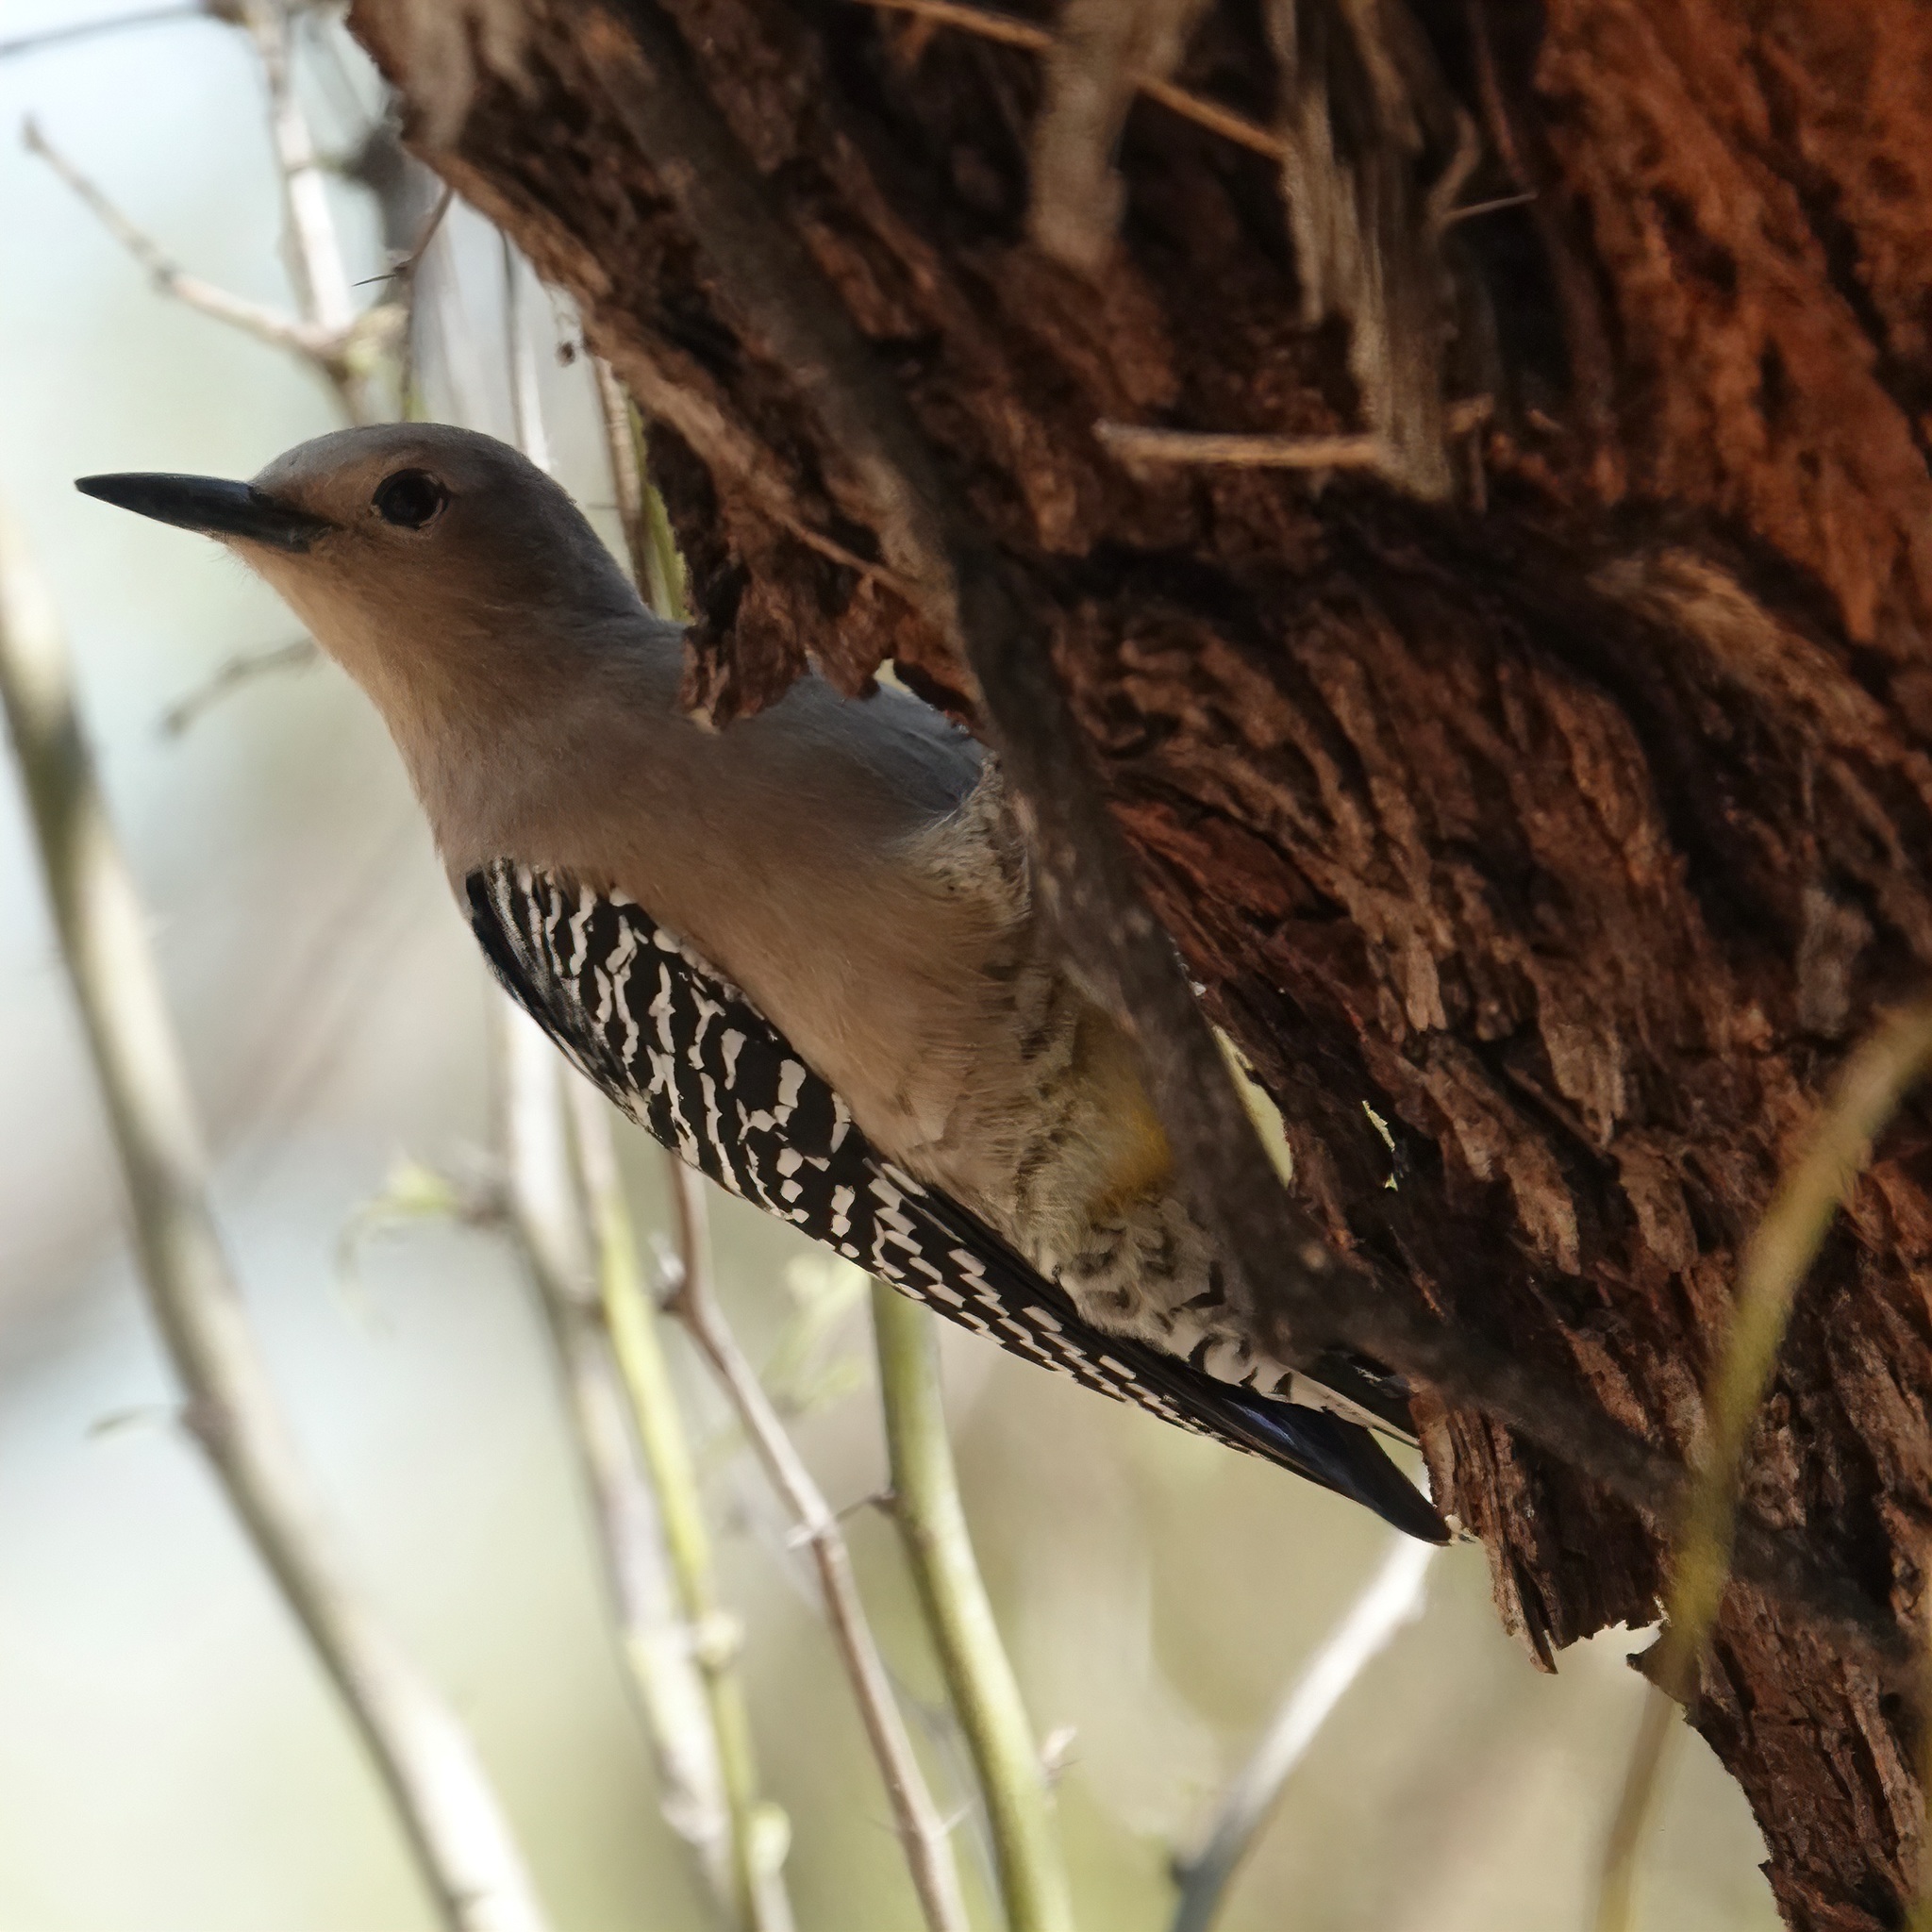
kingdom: Animalia
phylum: Chordata
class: Aves
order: Piciformes
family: Picidae
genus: Melanerpes
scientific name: Melanerpes uropygialis
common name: Gila woodpecker
